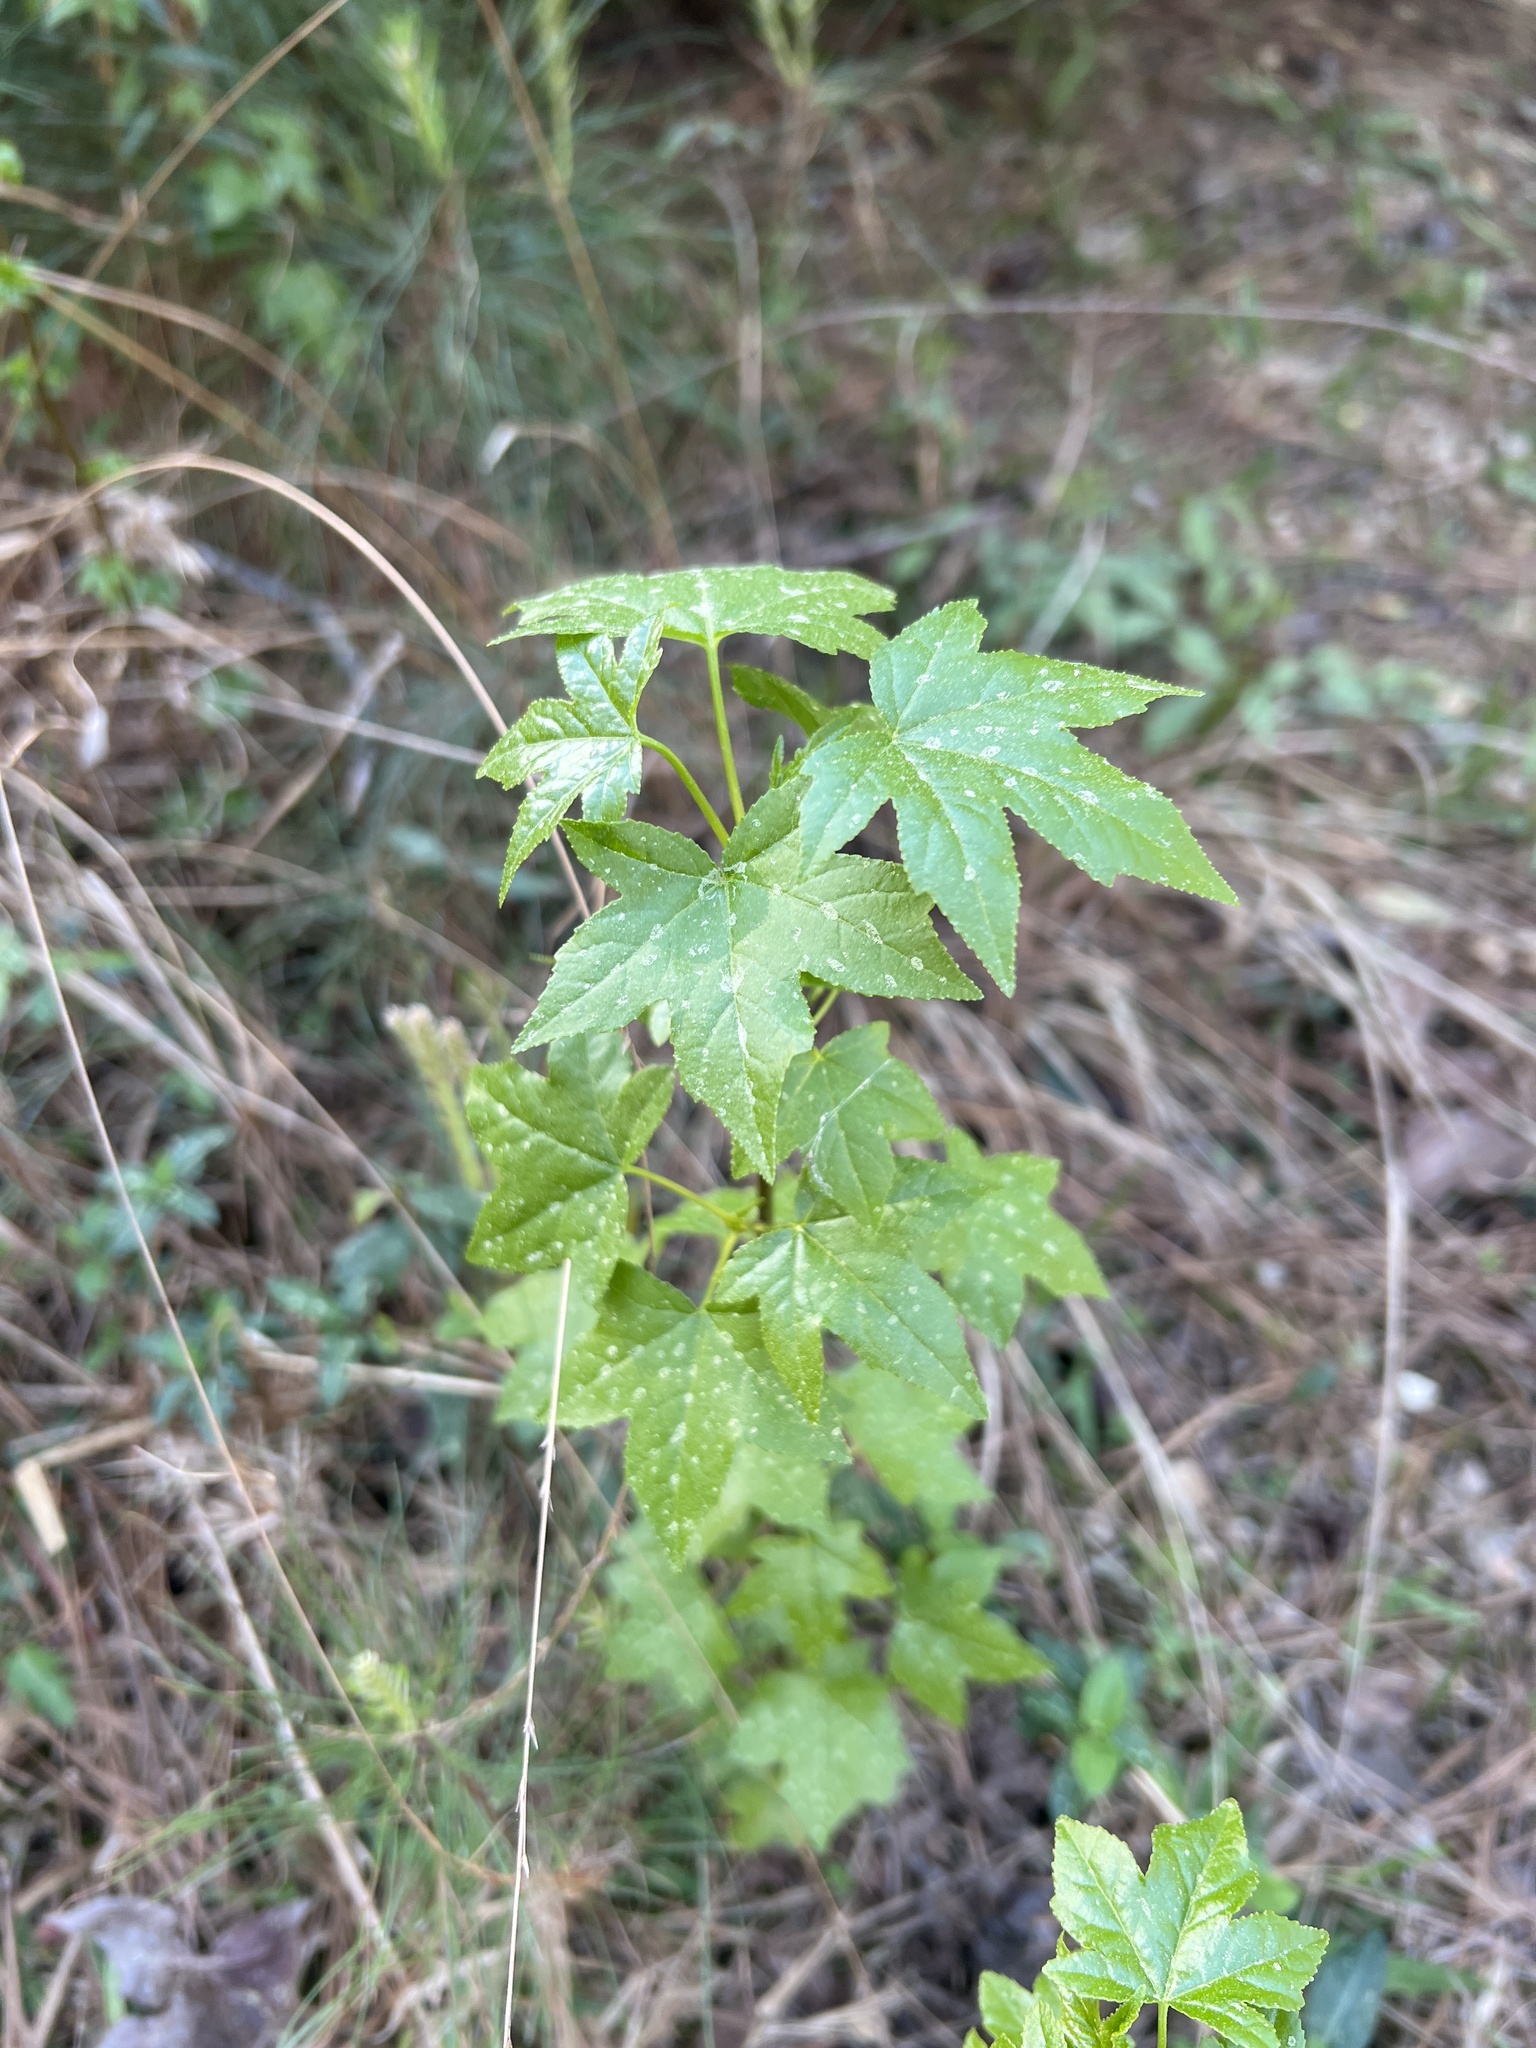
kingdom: Plantae
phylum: Tracheophyta
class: Magnoliopsida
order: Saxifragales
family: Altingiaceae
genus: Liquidambar
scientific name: Liquidambar styraciflua
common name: Sweet gum
